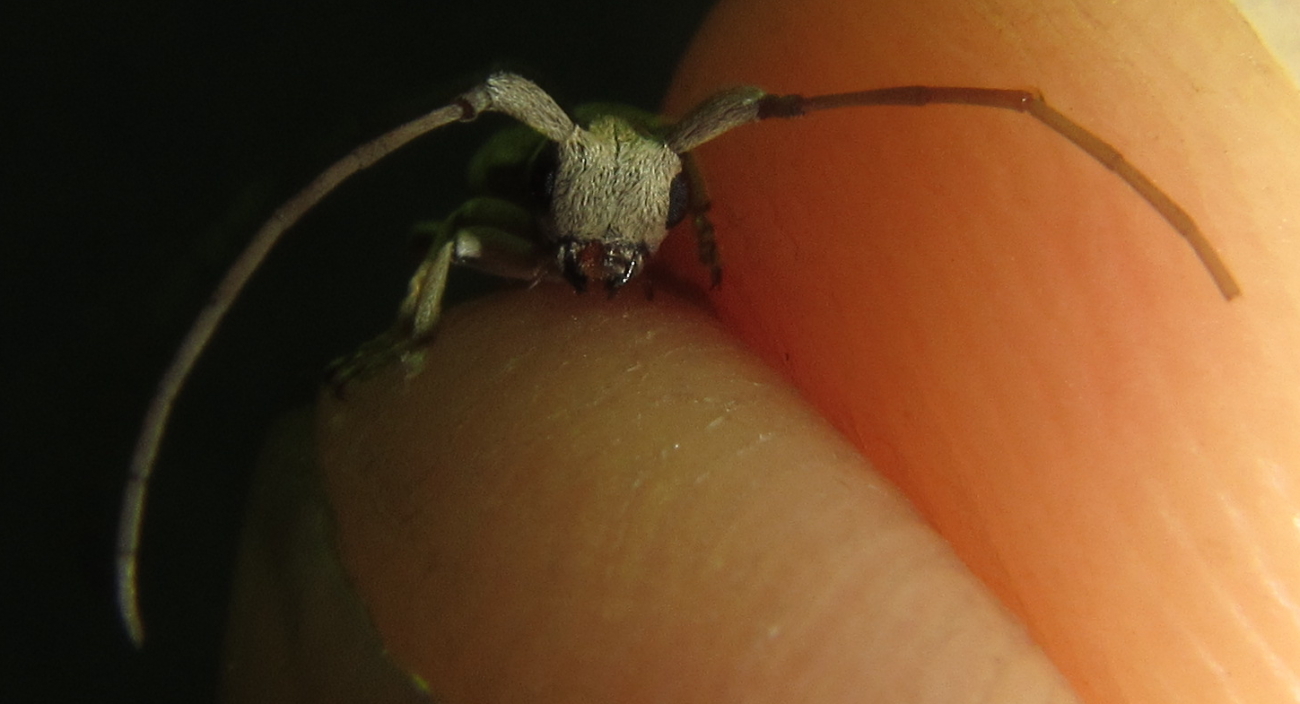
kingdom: Animalia
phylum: Arthropoda
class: Insecta
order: Coleoptera
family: Cerambycidae
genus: Eunidia
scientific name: Eunidia vagevittata
